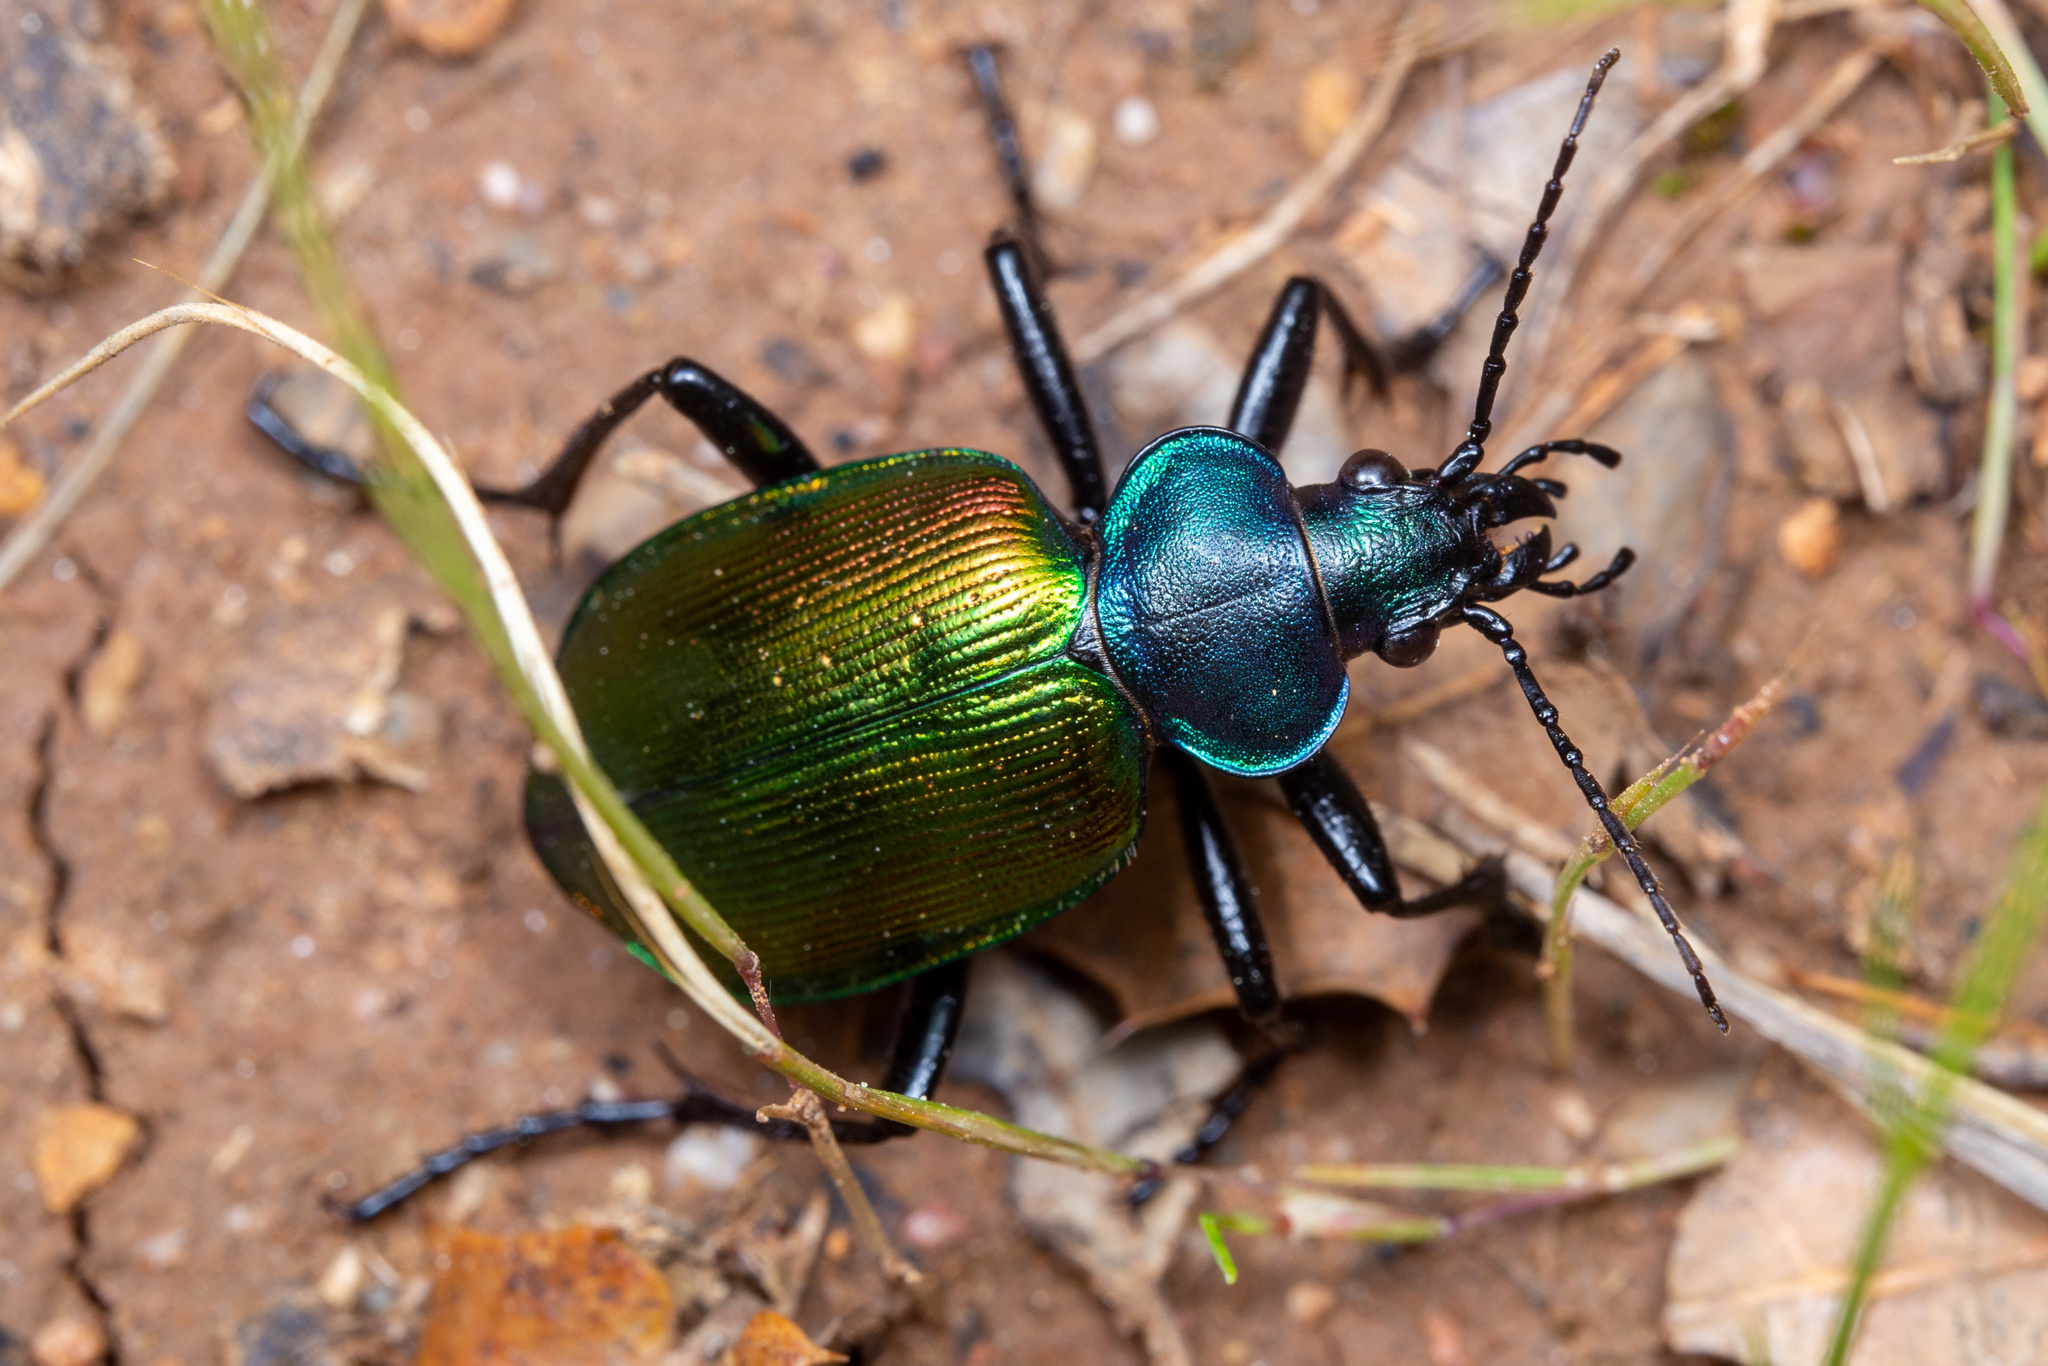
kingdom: Animalia
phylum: Arthropoda
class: Insecta
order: Coleoptera
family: Carabidae
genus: Calosoma
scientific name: Calosoma sycophanta
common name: Forest caterpillar hunter
